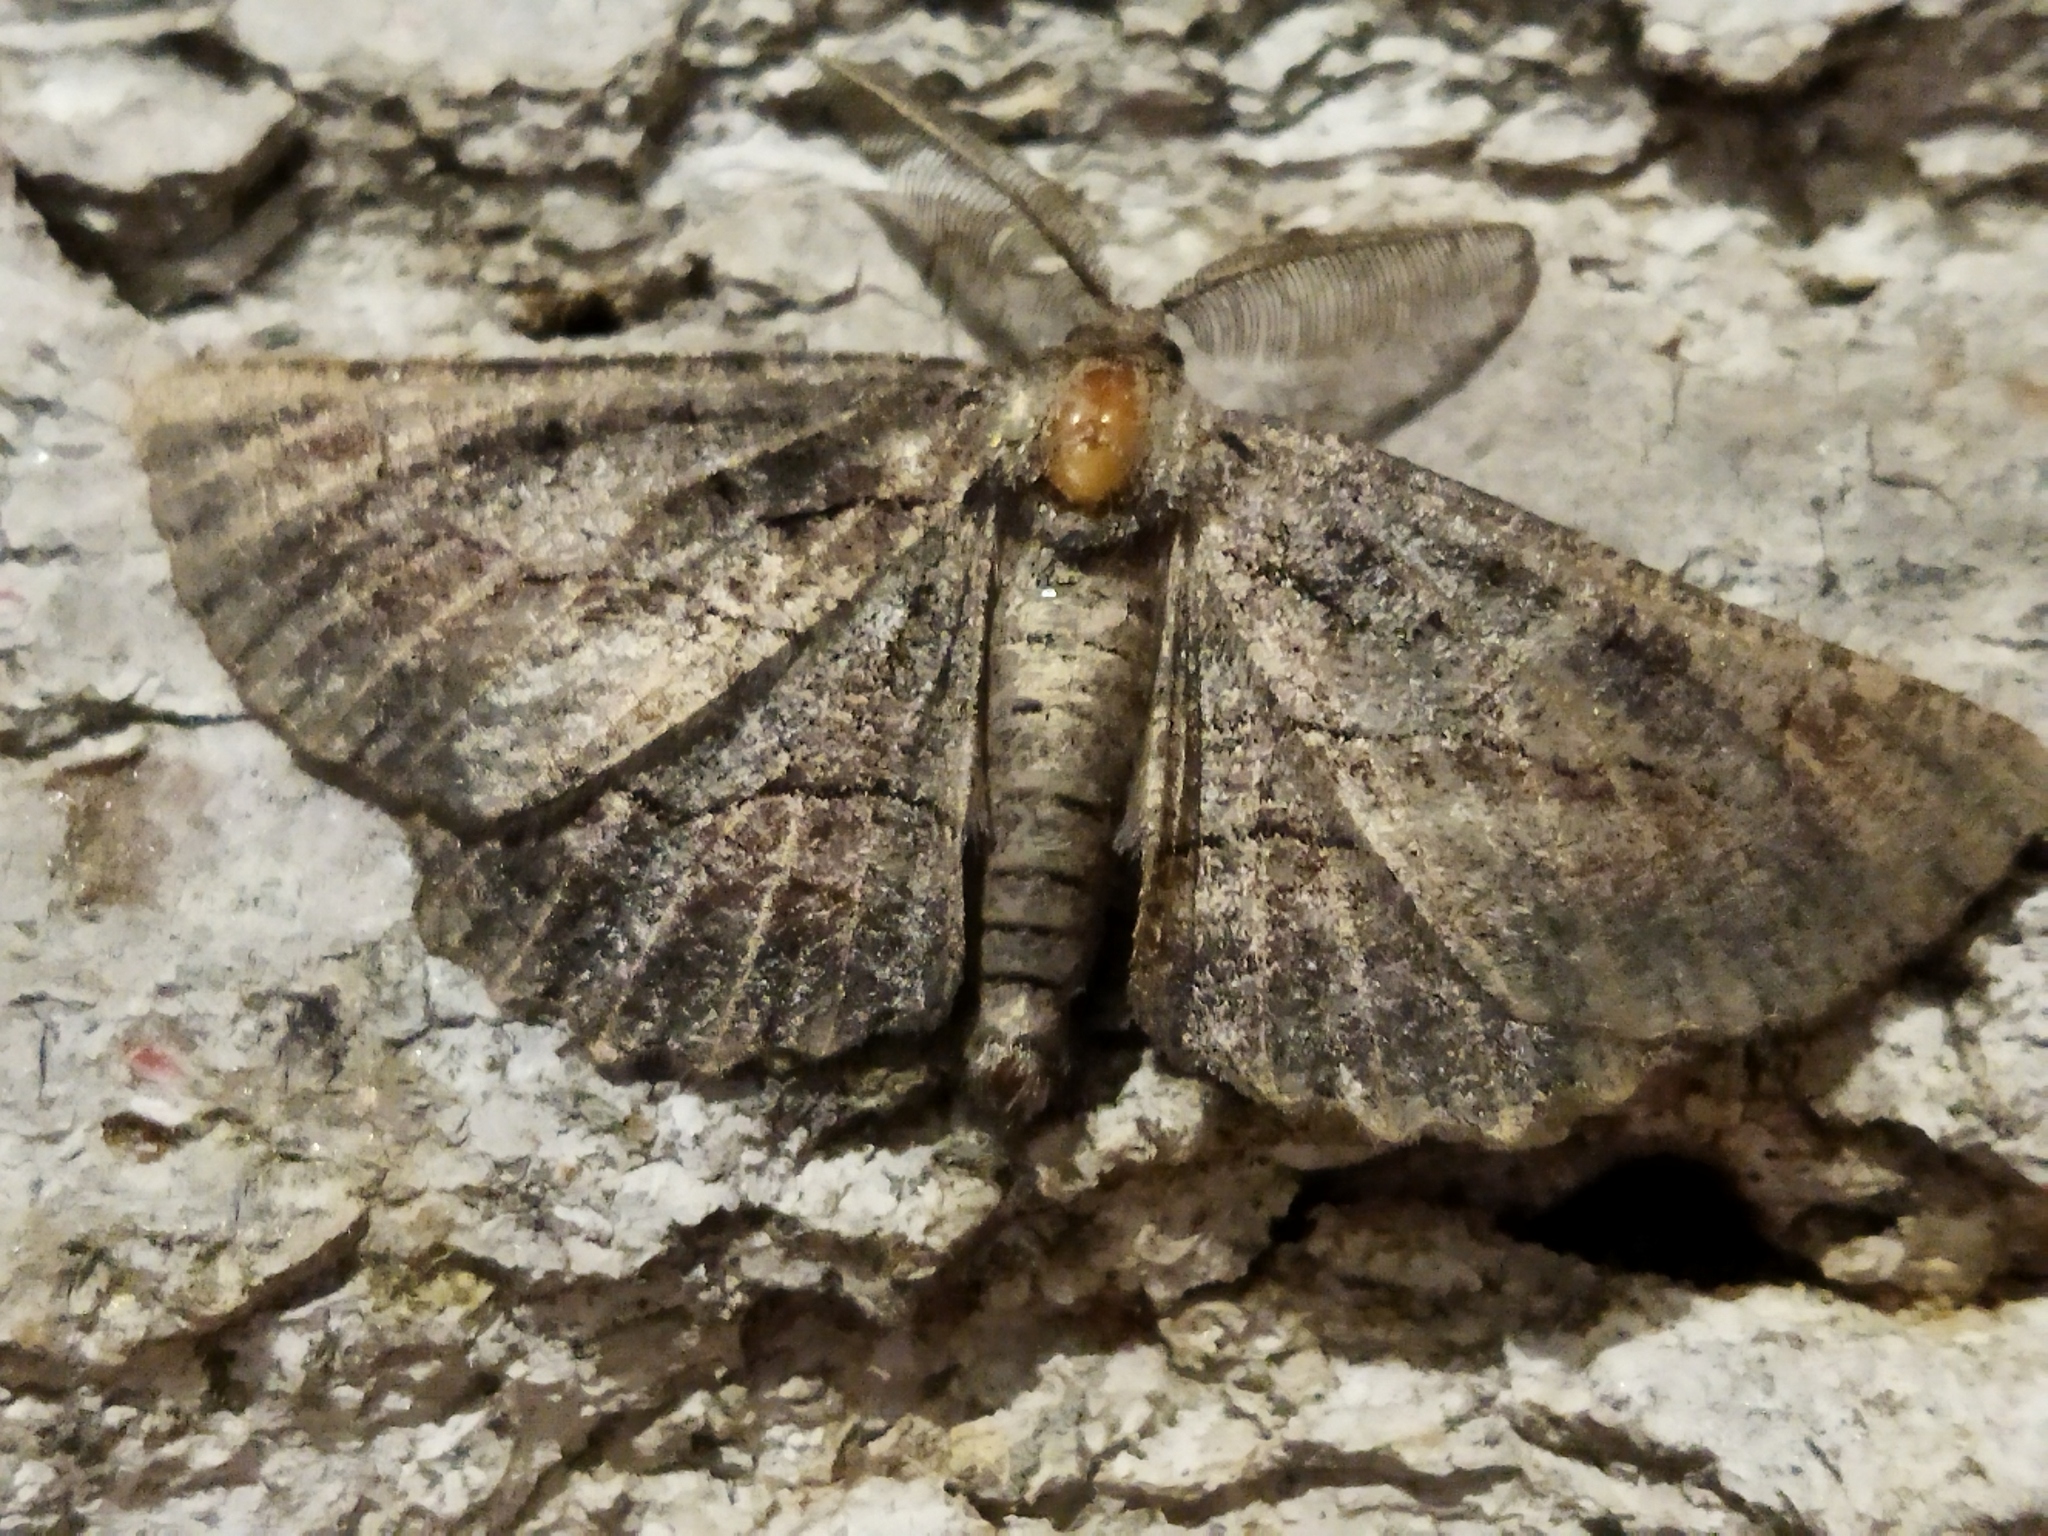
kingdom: Animalia
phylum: Arthropoda
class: Insecta
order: Lepidoptera
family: Geometridae
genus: Nychiodes
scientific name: Nychiodes waltheri
